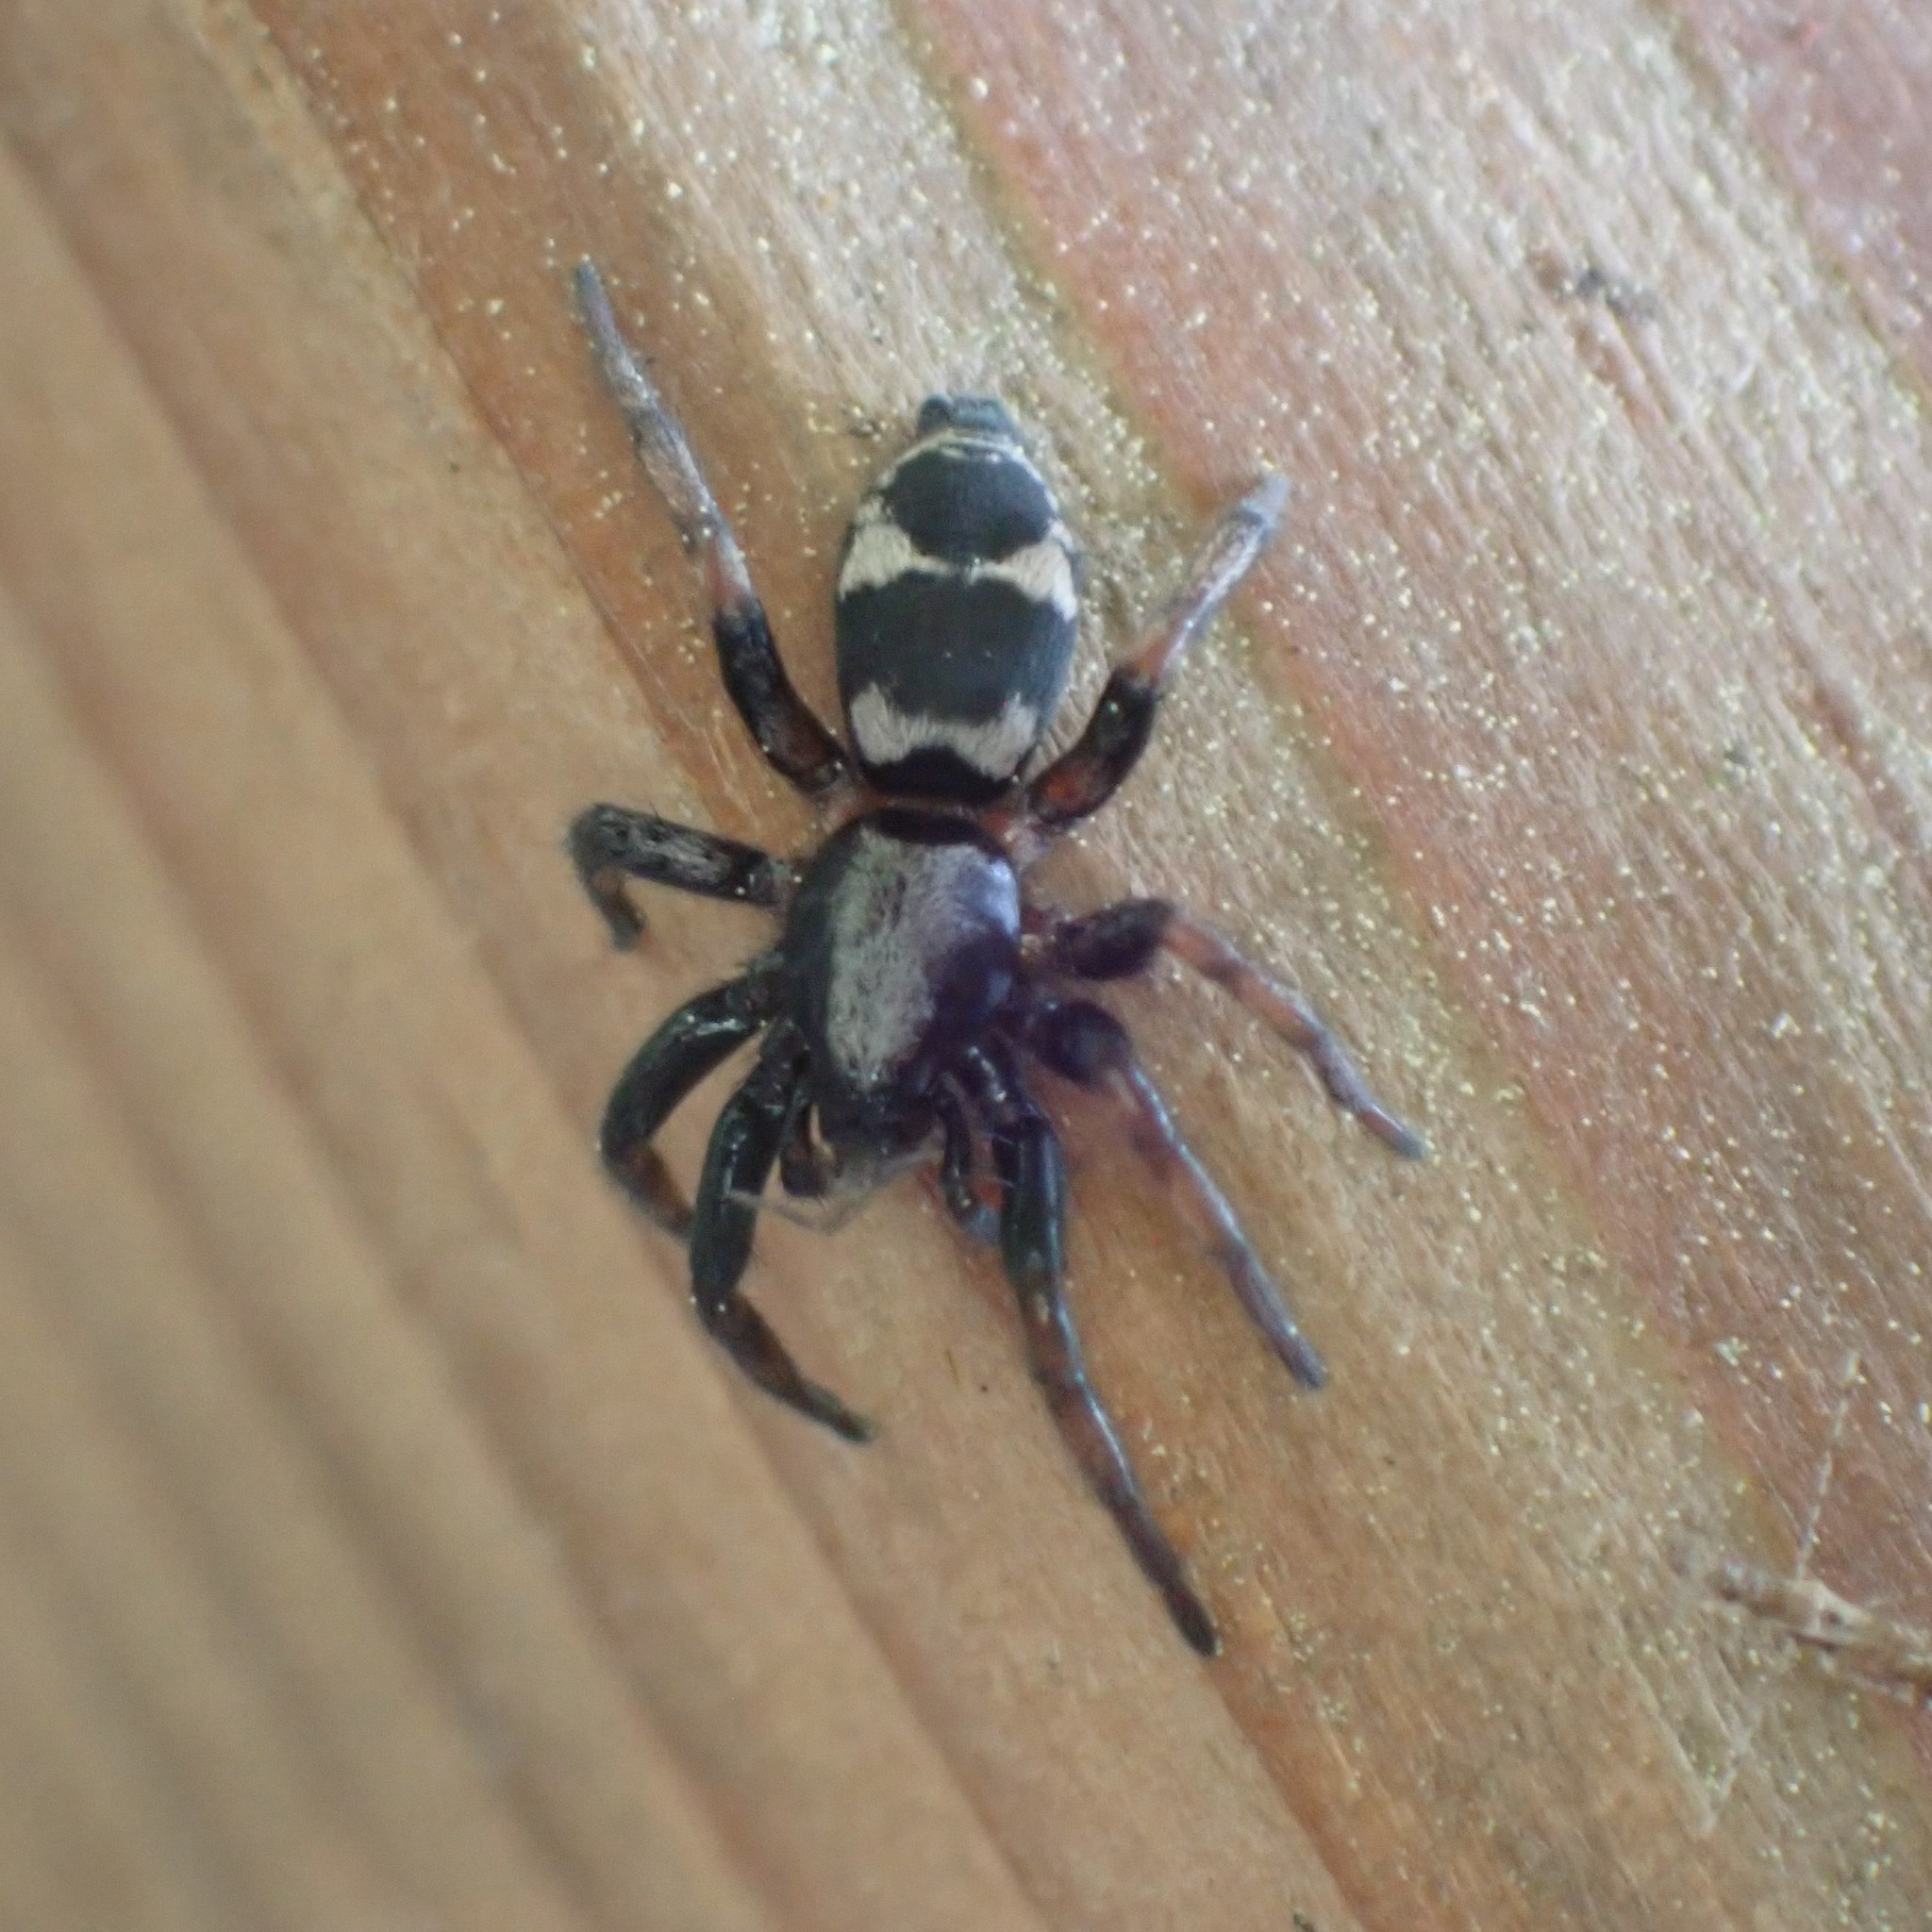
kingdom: Animalia
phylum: Arthropoda
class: Arachnida
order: Araneae
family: Gnaphosidae
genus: Sergiolus
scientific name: Sergiolus montanus
